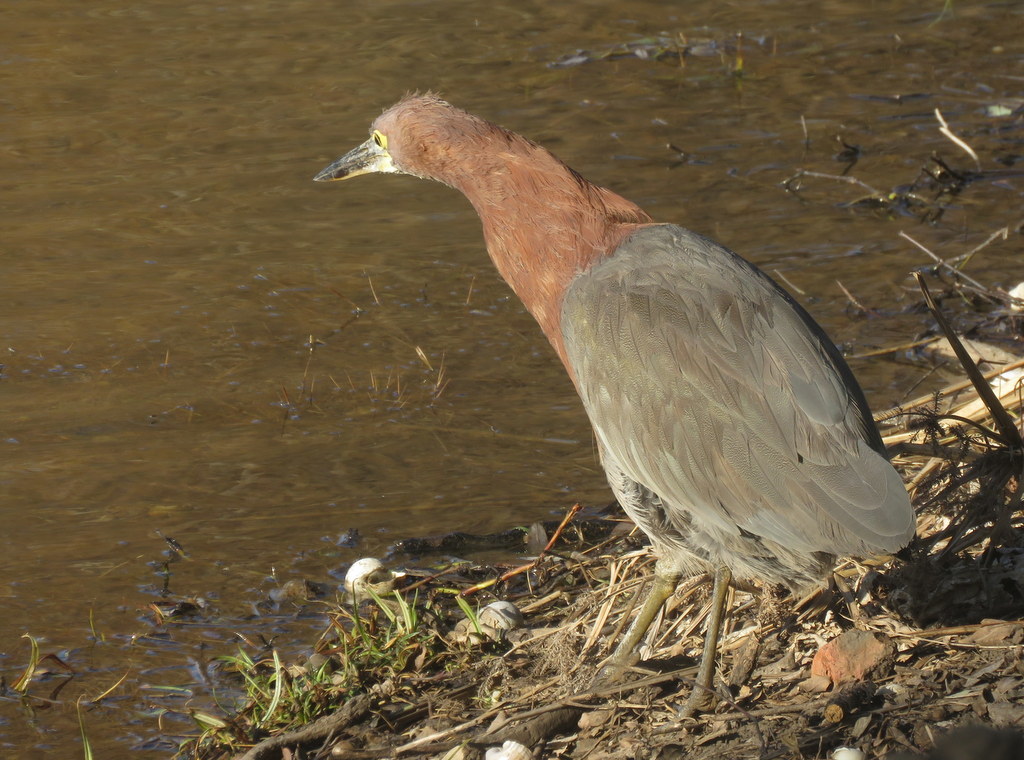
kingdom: Animalia
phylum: Chordata
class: Aves
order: Pelecaniformes
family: Ardeidae
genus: Tigrisoma
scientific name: Tigrisoma lineatum
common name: Rufescent tiger-heron
